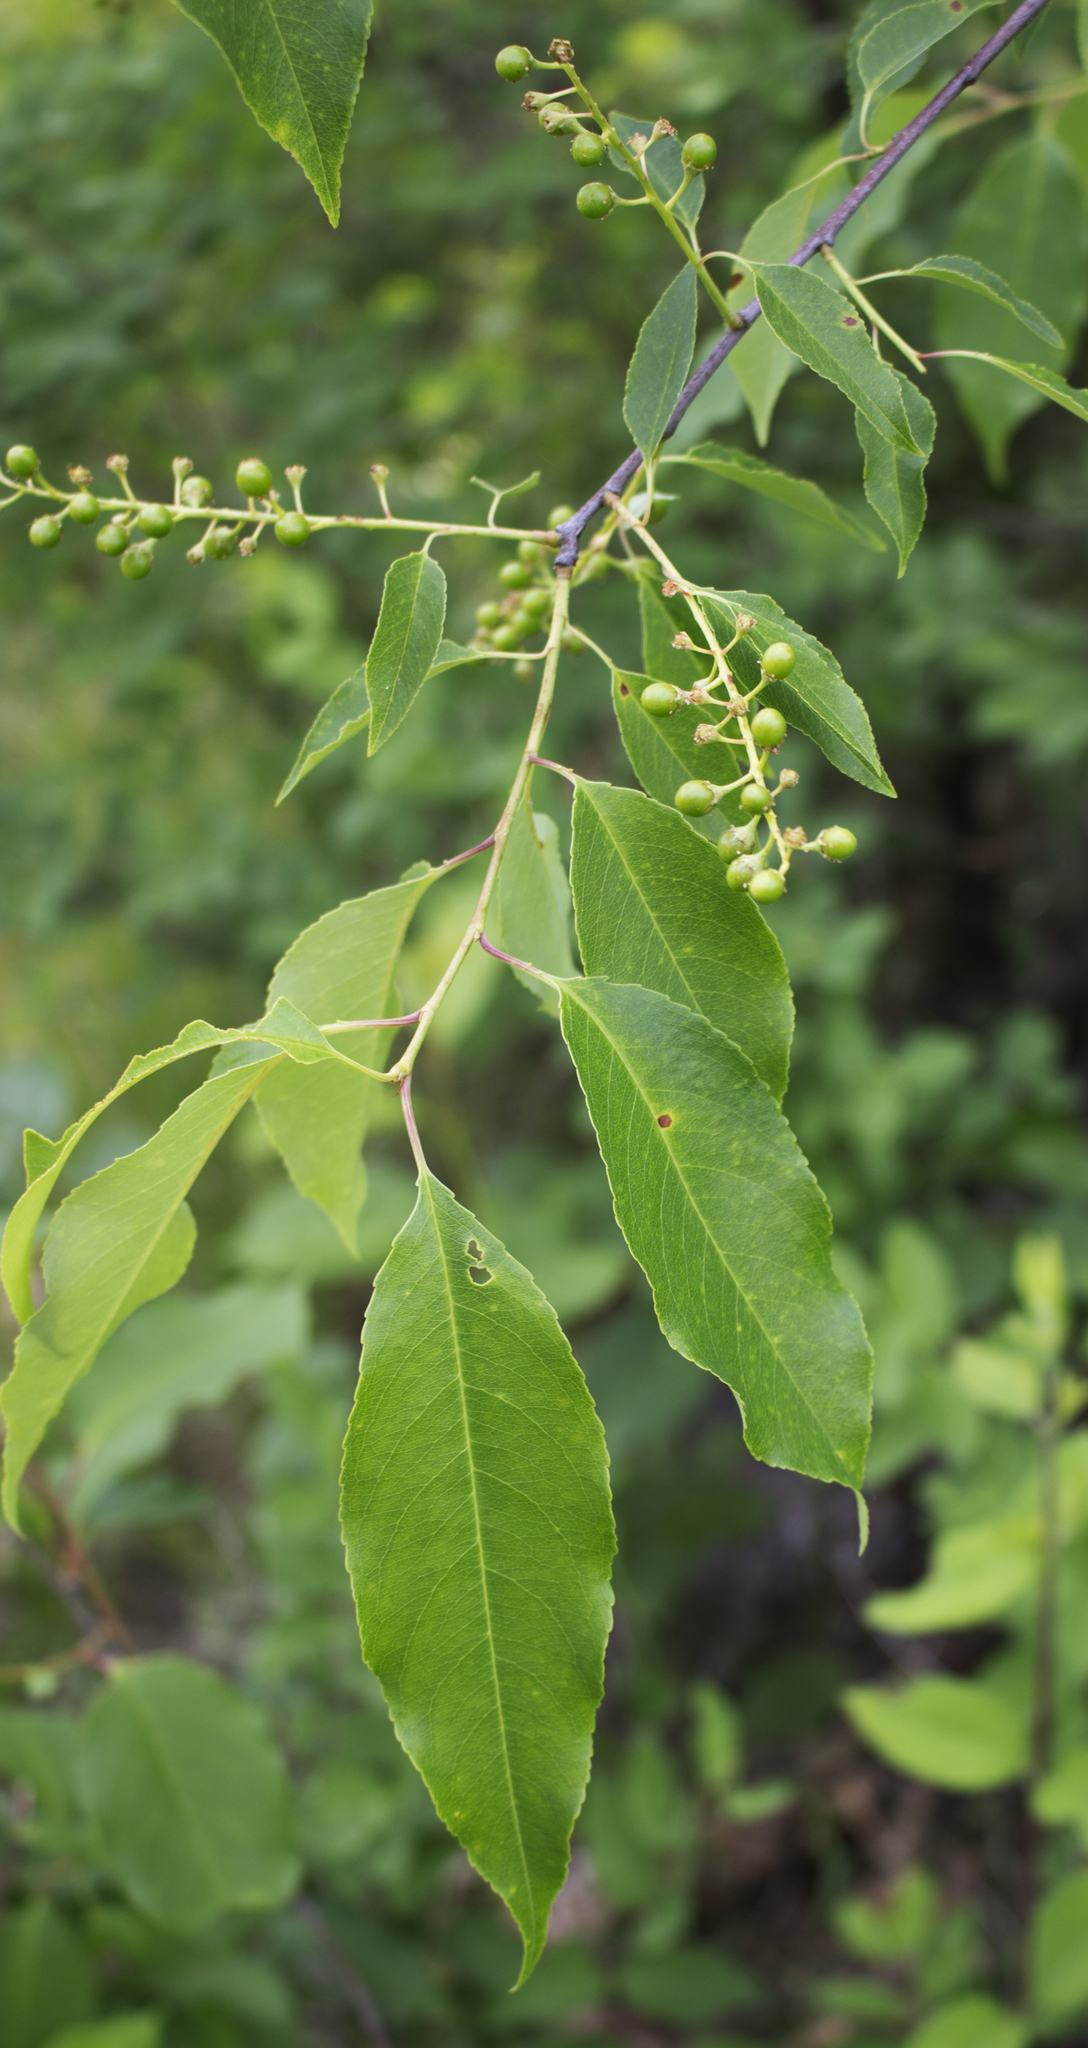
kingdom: Plantae
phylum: Tracheophyta
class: Magnoliopsida
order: Rosales
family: Rosaceae
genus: Prunus
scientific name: Prunus serotina
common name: Black cherry
